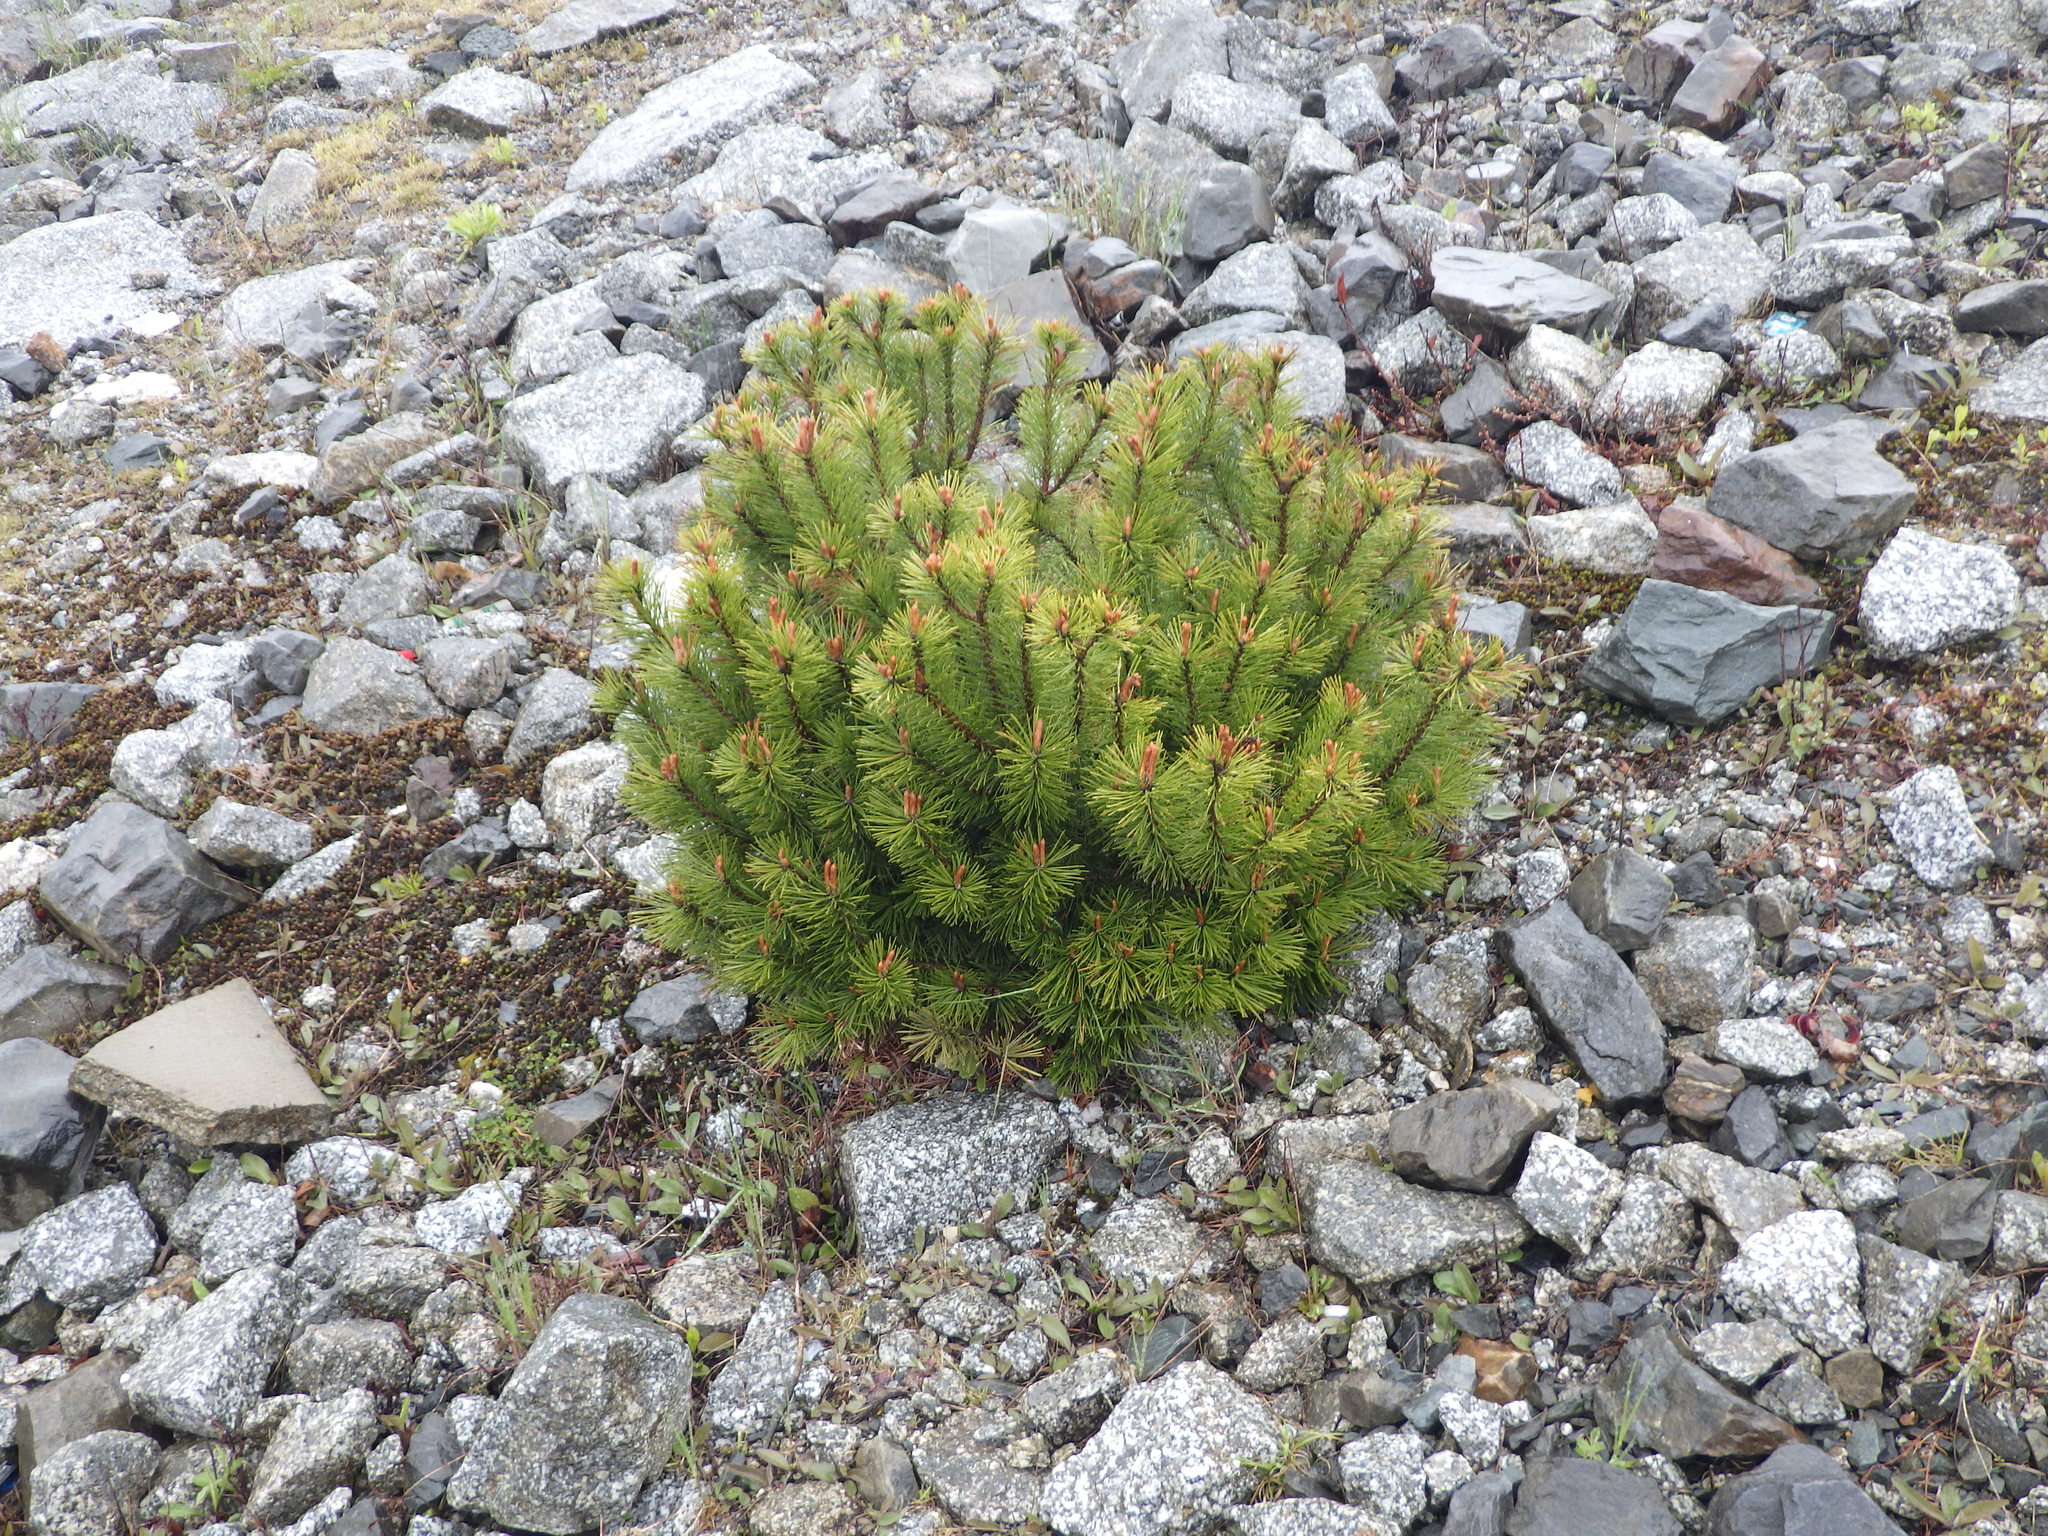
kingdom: Plantae
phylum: Tracheophyta
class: Pinopsida
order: Pinales
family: Pinaceae
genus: Pinus
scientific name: Pinus banksiana
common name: Jack pine
